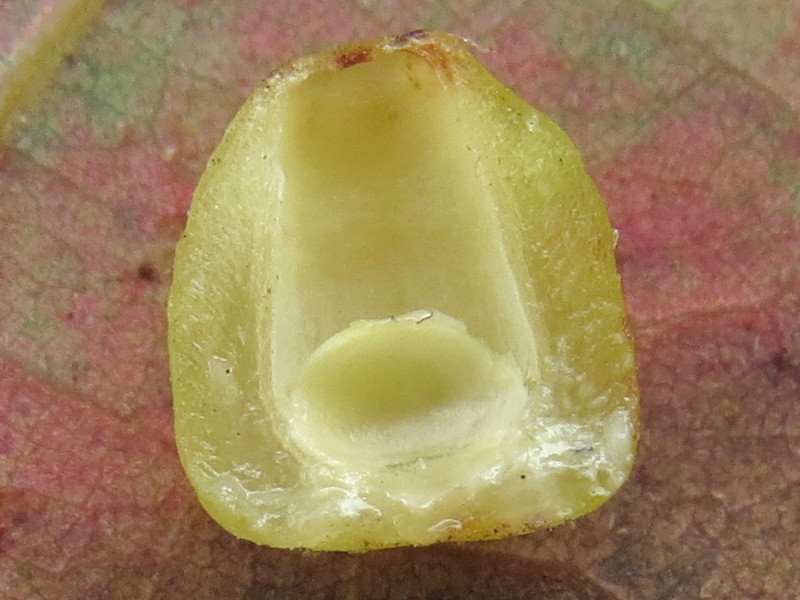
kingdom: Animalia
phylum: Arthropoda
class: Insecta
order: Hymenoptera
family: Cynipidae
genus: Andricus
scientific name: Andricus
